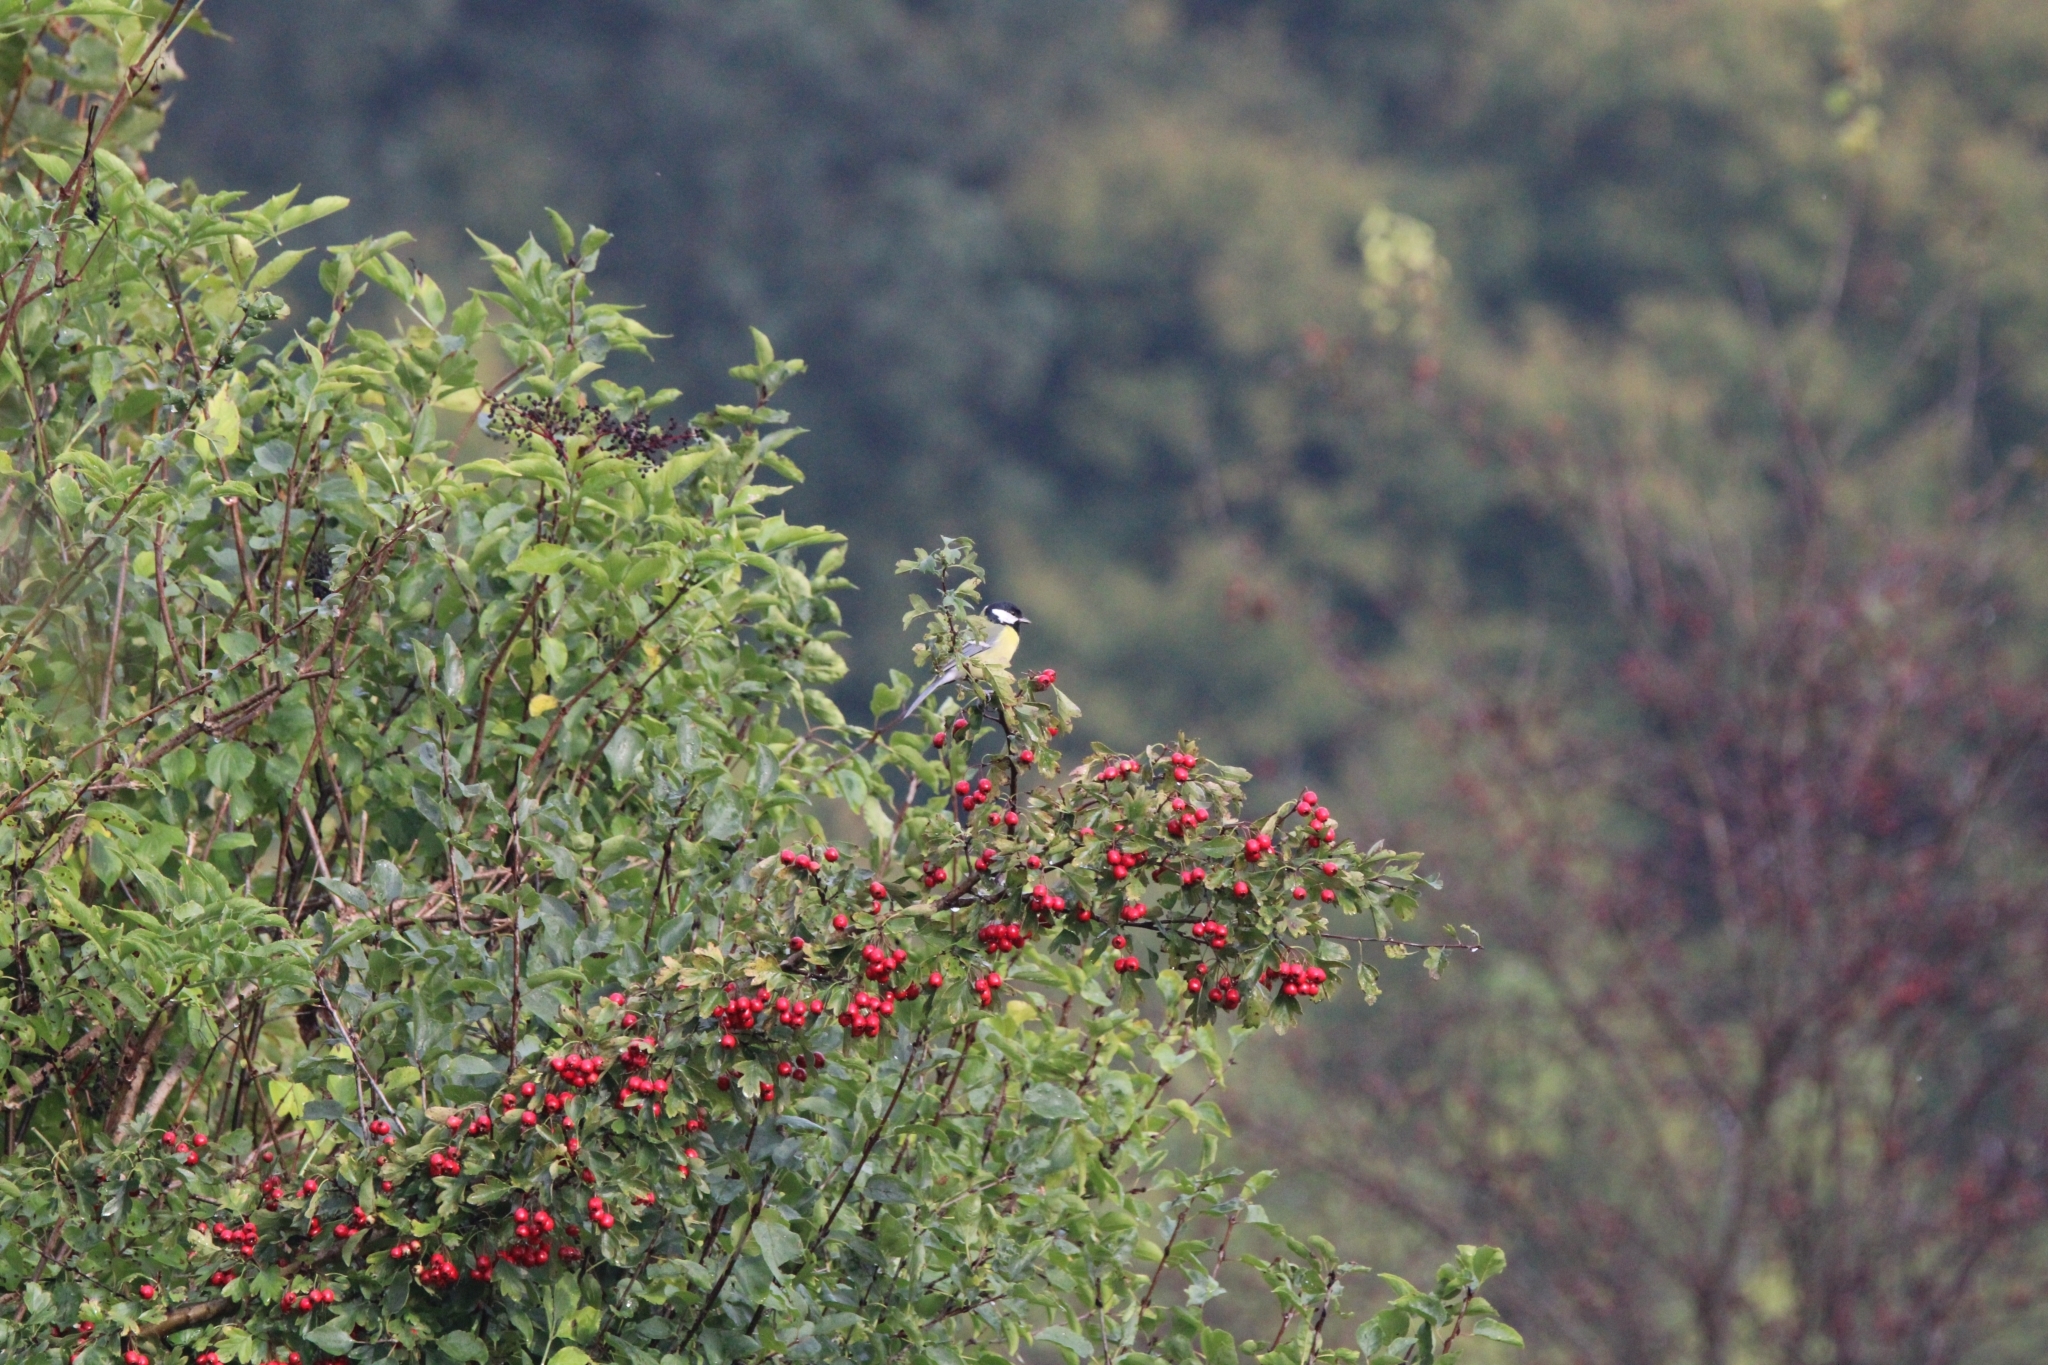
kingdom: Animalia
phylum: Chordata
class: Aves
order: Passeriformes
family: Paridae
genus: Parus
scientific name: Parus major
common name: Great tit
